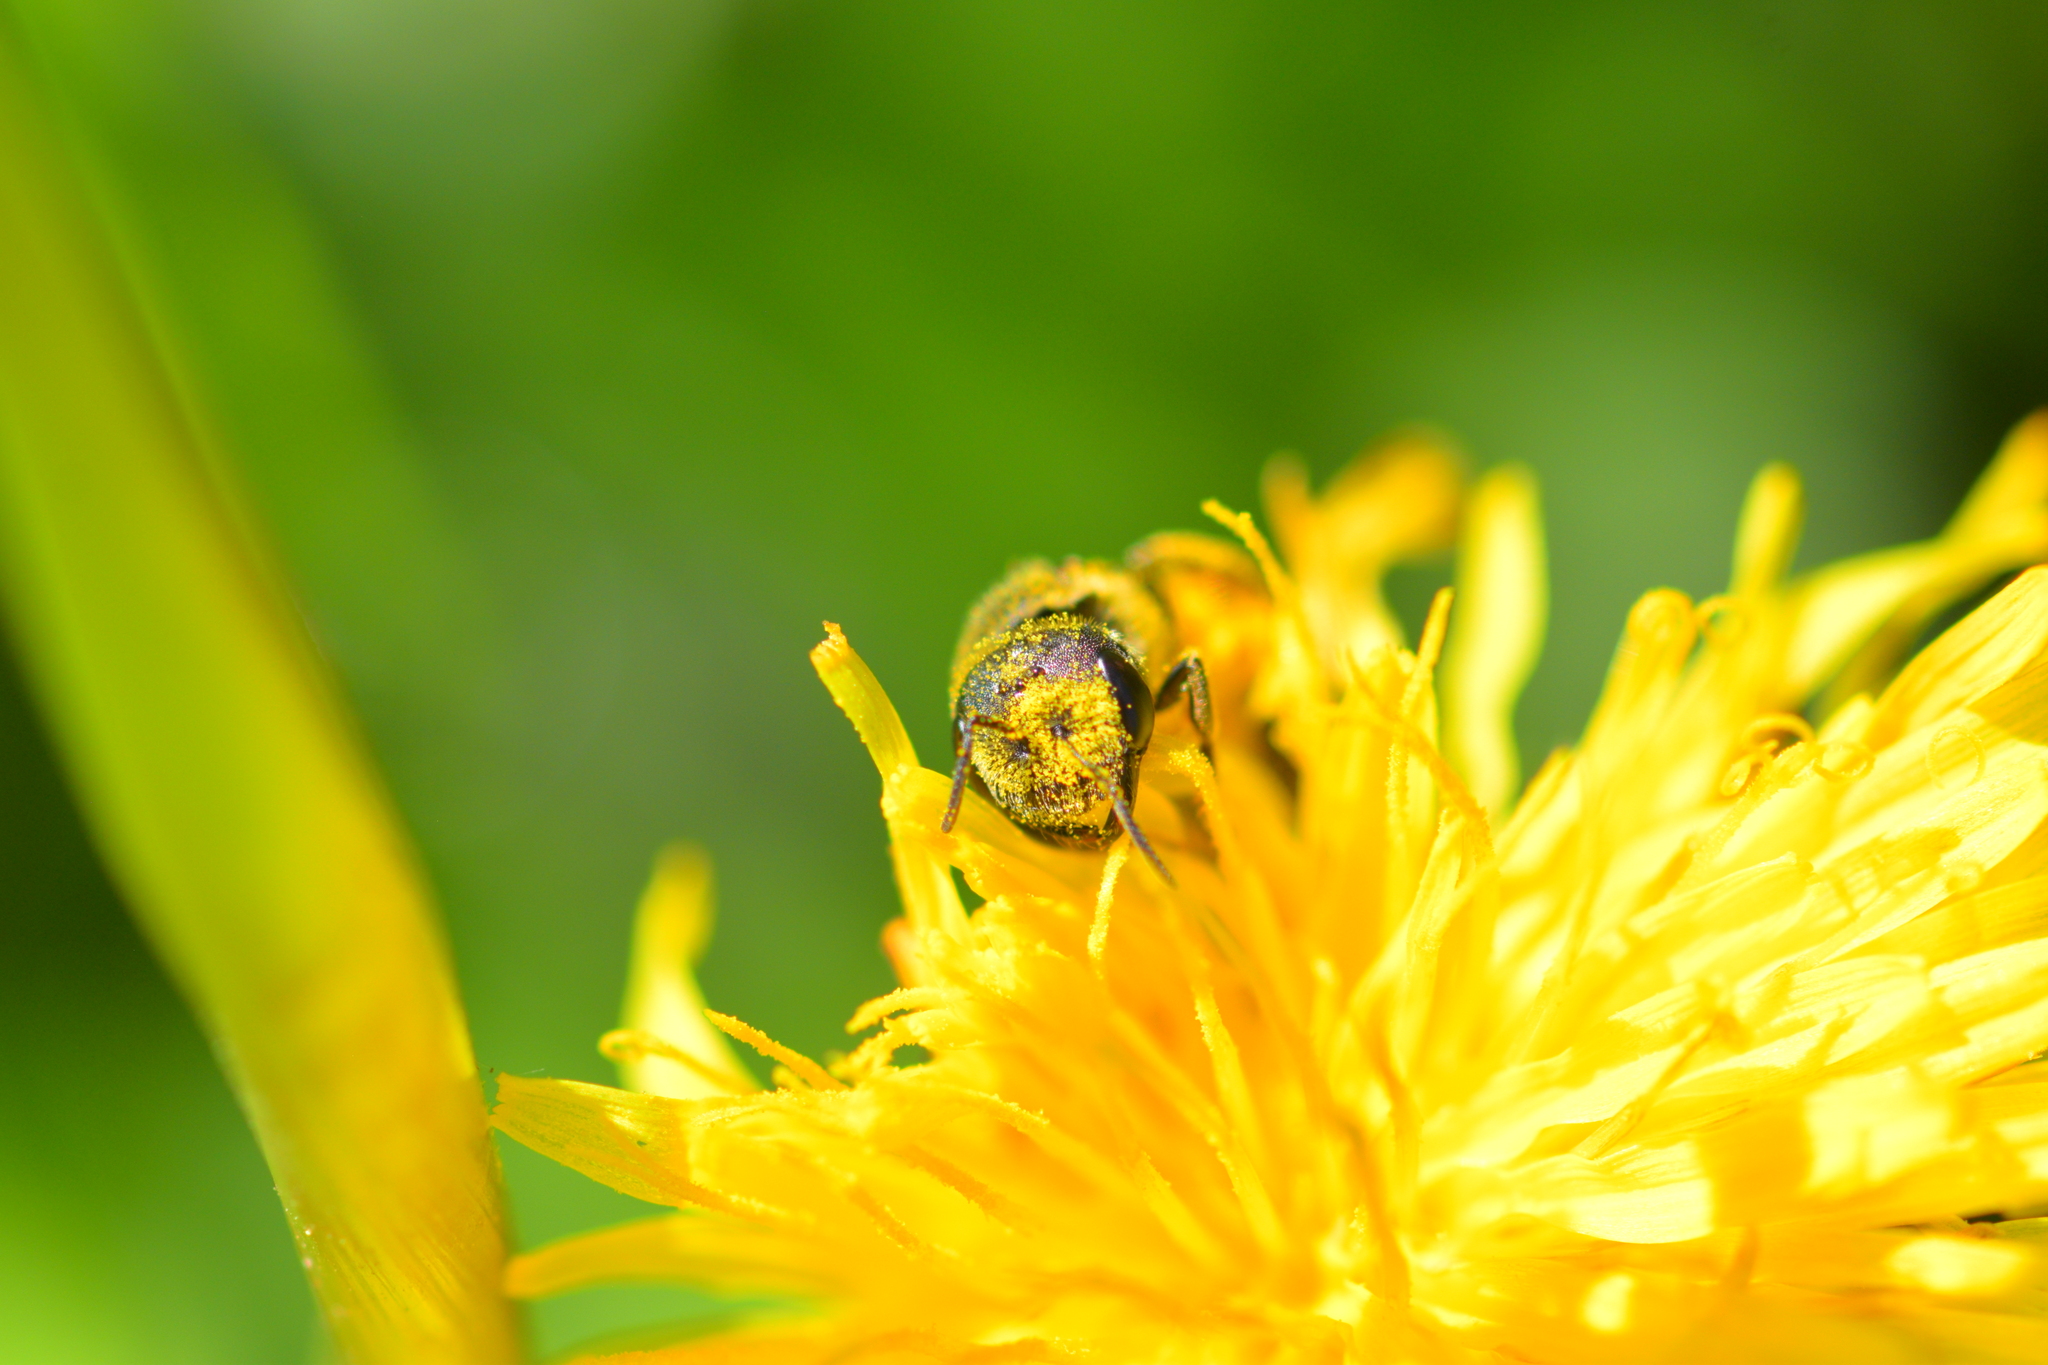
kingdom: Animalia
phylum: Arthropoda
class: Insecta
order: Hymenoptera
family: Halictidae
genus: Halictus
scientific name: Halictus ligatus
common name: Ligated furrow bee
